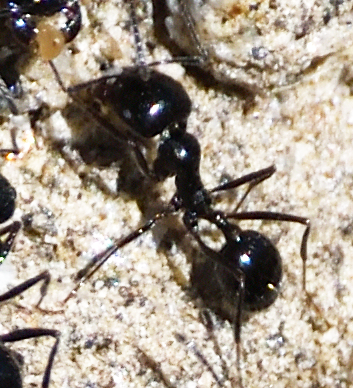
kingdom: Animalia
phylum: Arthropoda
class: Insecta
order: Hymenoptera
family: Formicidae
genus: Messor
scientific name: Messor pergandei
